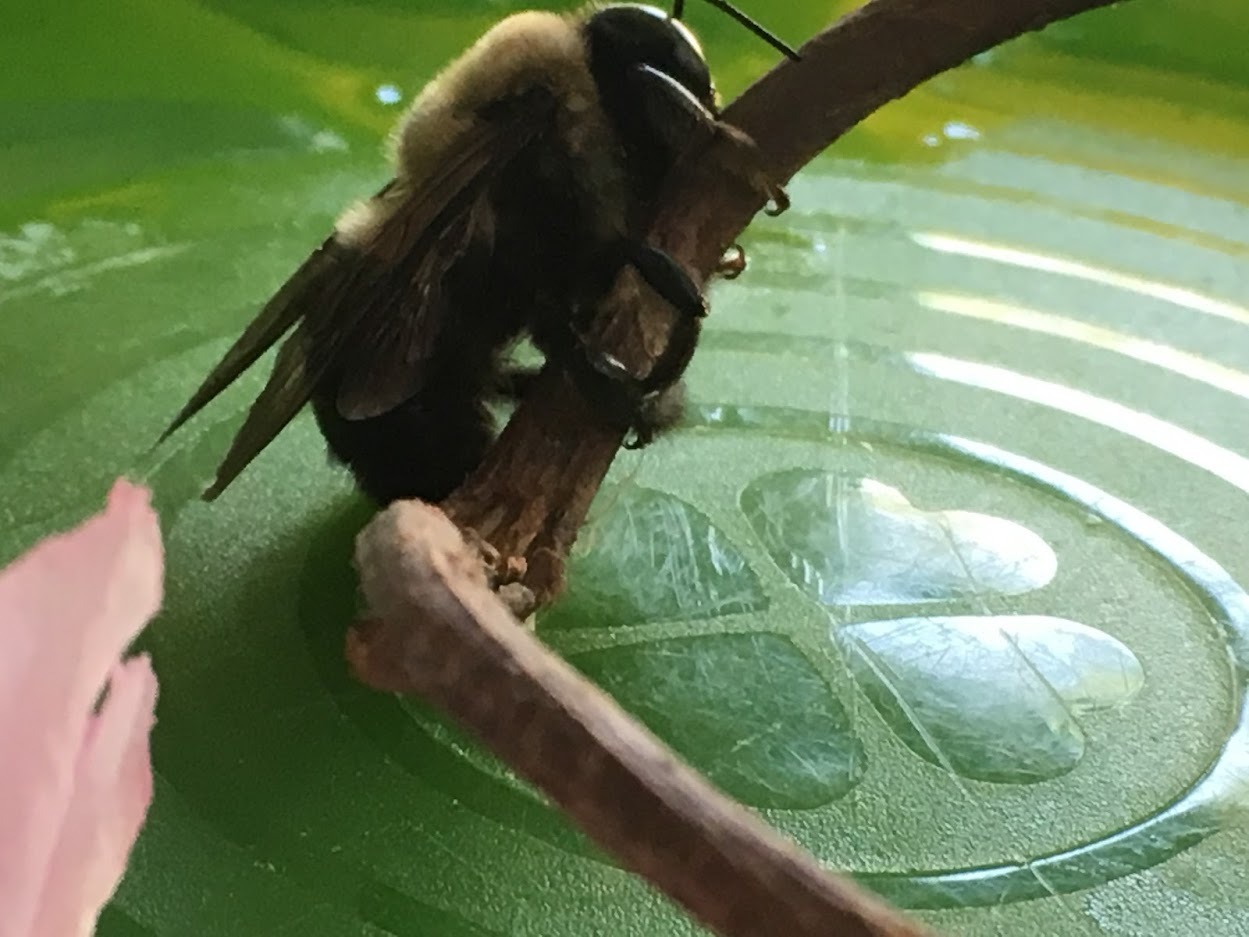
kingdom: Animalia
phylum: Arthropoda
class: Insecta
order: Hymenoptera
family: Apidae
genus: Xylocopa
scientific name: Xylocopa virginica
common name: Carpenter bee
